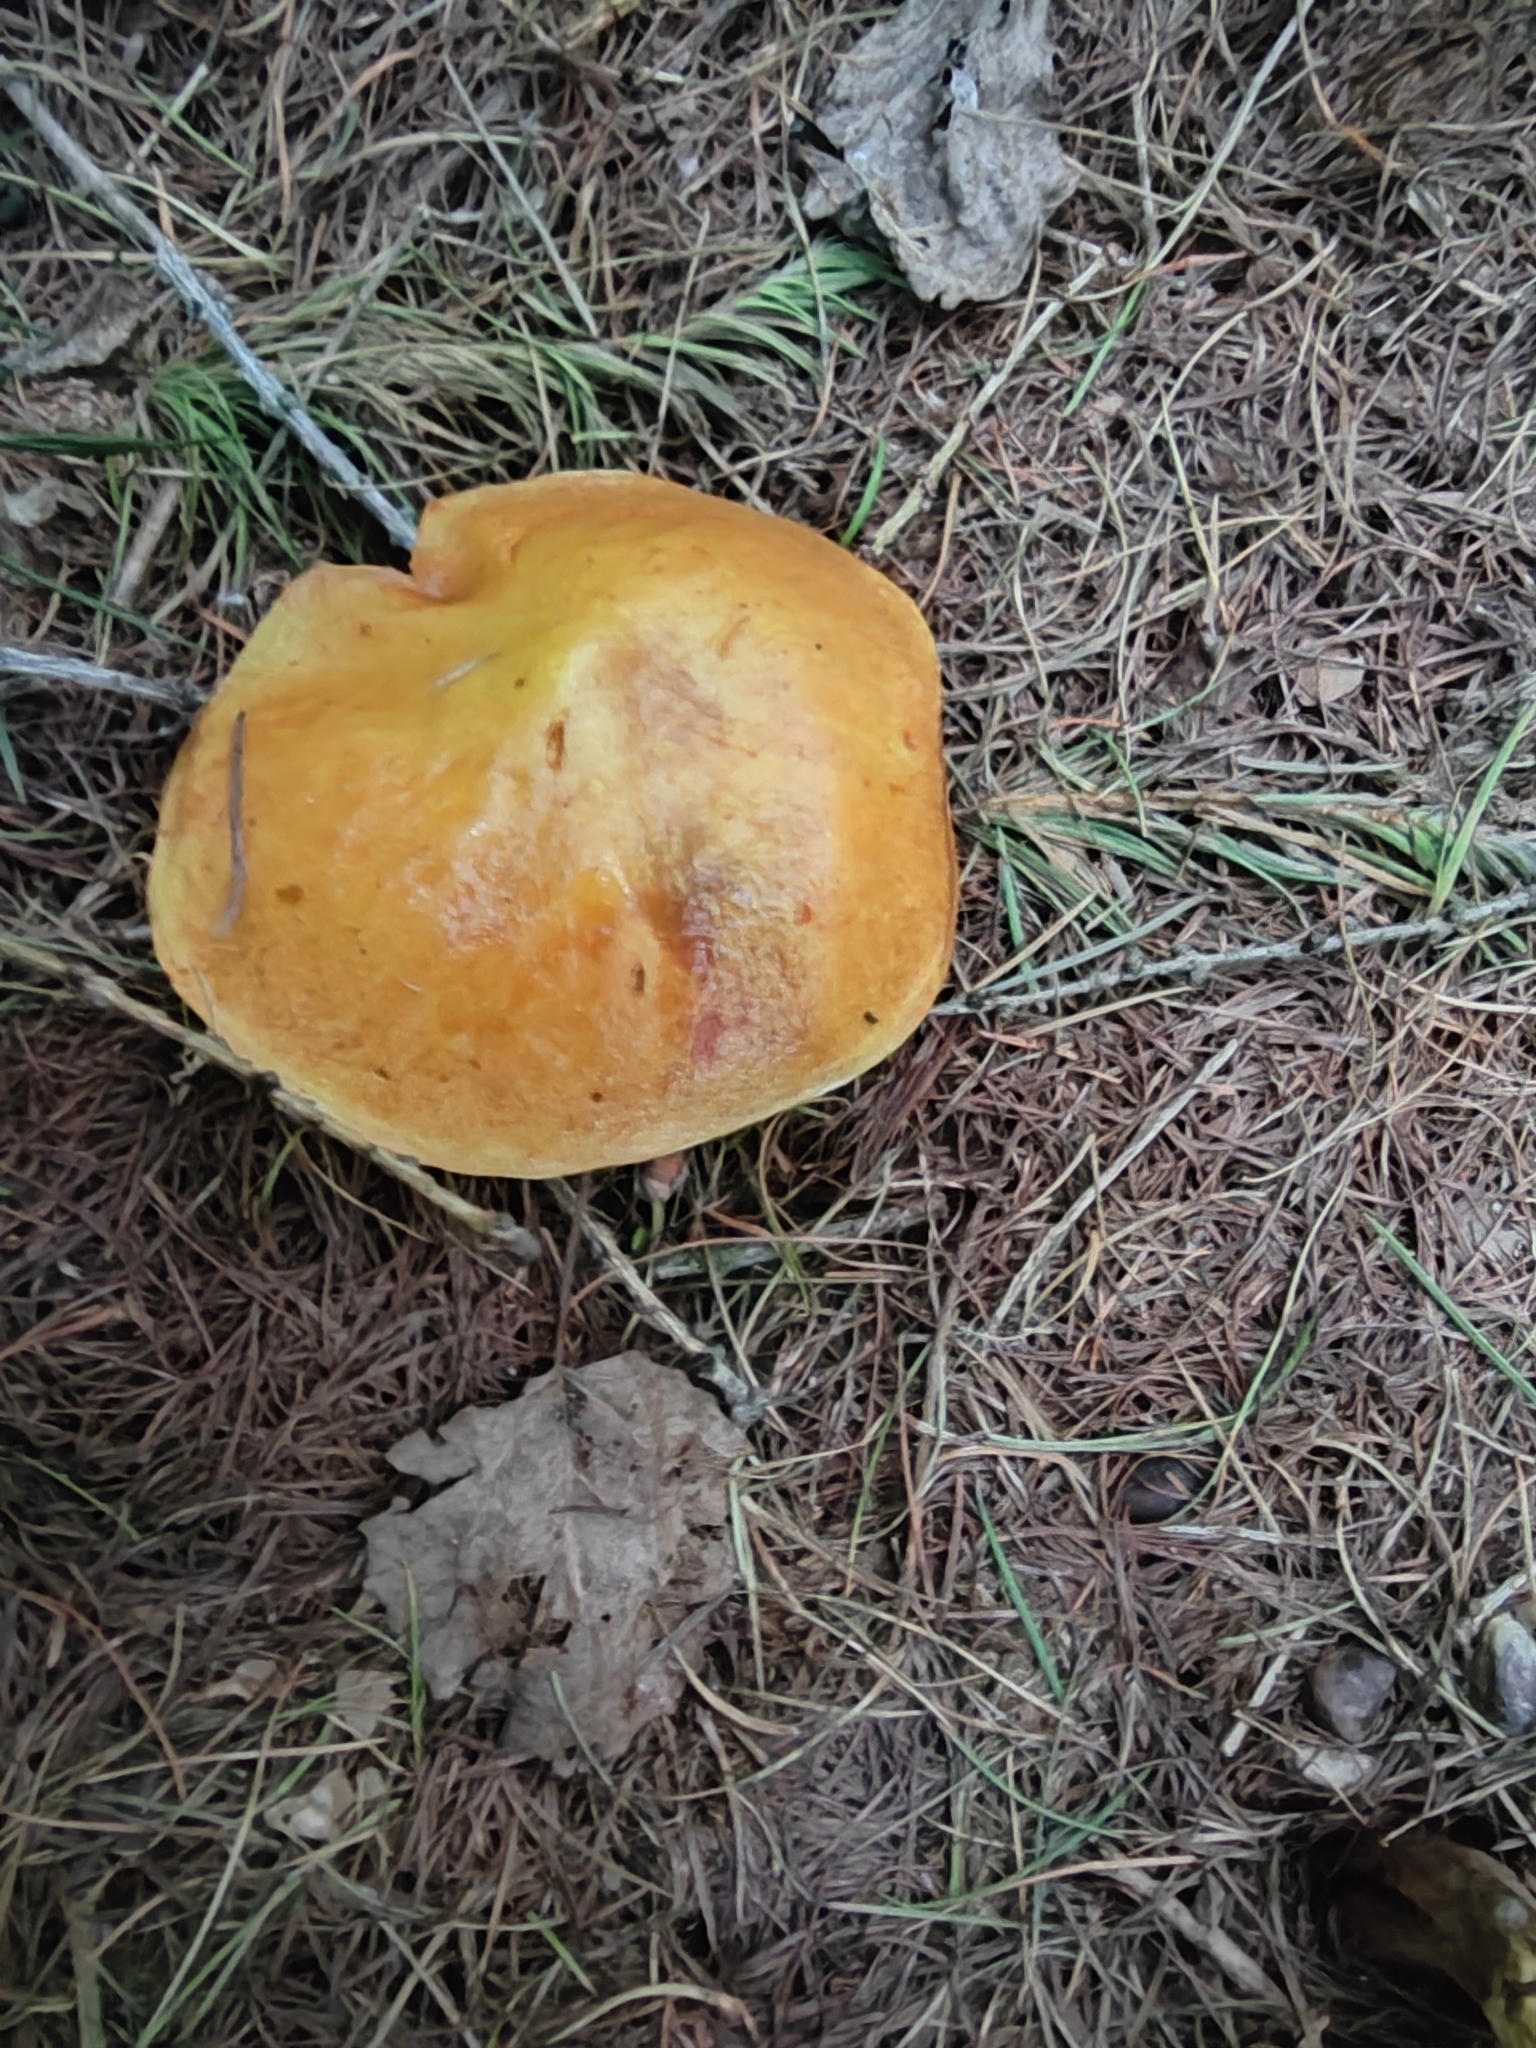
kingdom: Fungi
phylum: Basidiomycota
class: Agaricomycetes
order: Boletales
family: Suillaceae
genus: Suillus
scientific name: Suillus grevillei
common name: Larch bolete
